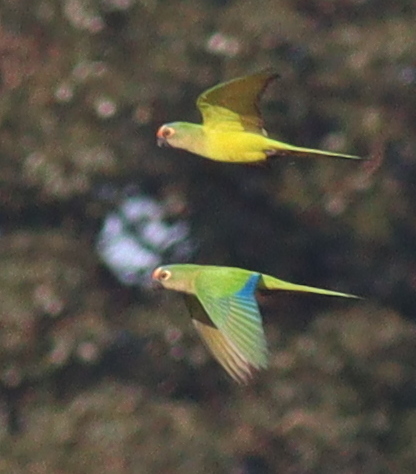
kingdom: Animalia
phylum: Chordata
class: Aves
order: Psittaciformes
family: Psittacidae
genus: Aratinga
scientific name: Aratinga aurea
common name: Peach-fronted parakeet
